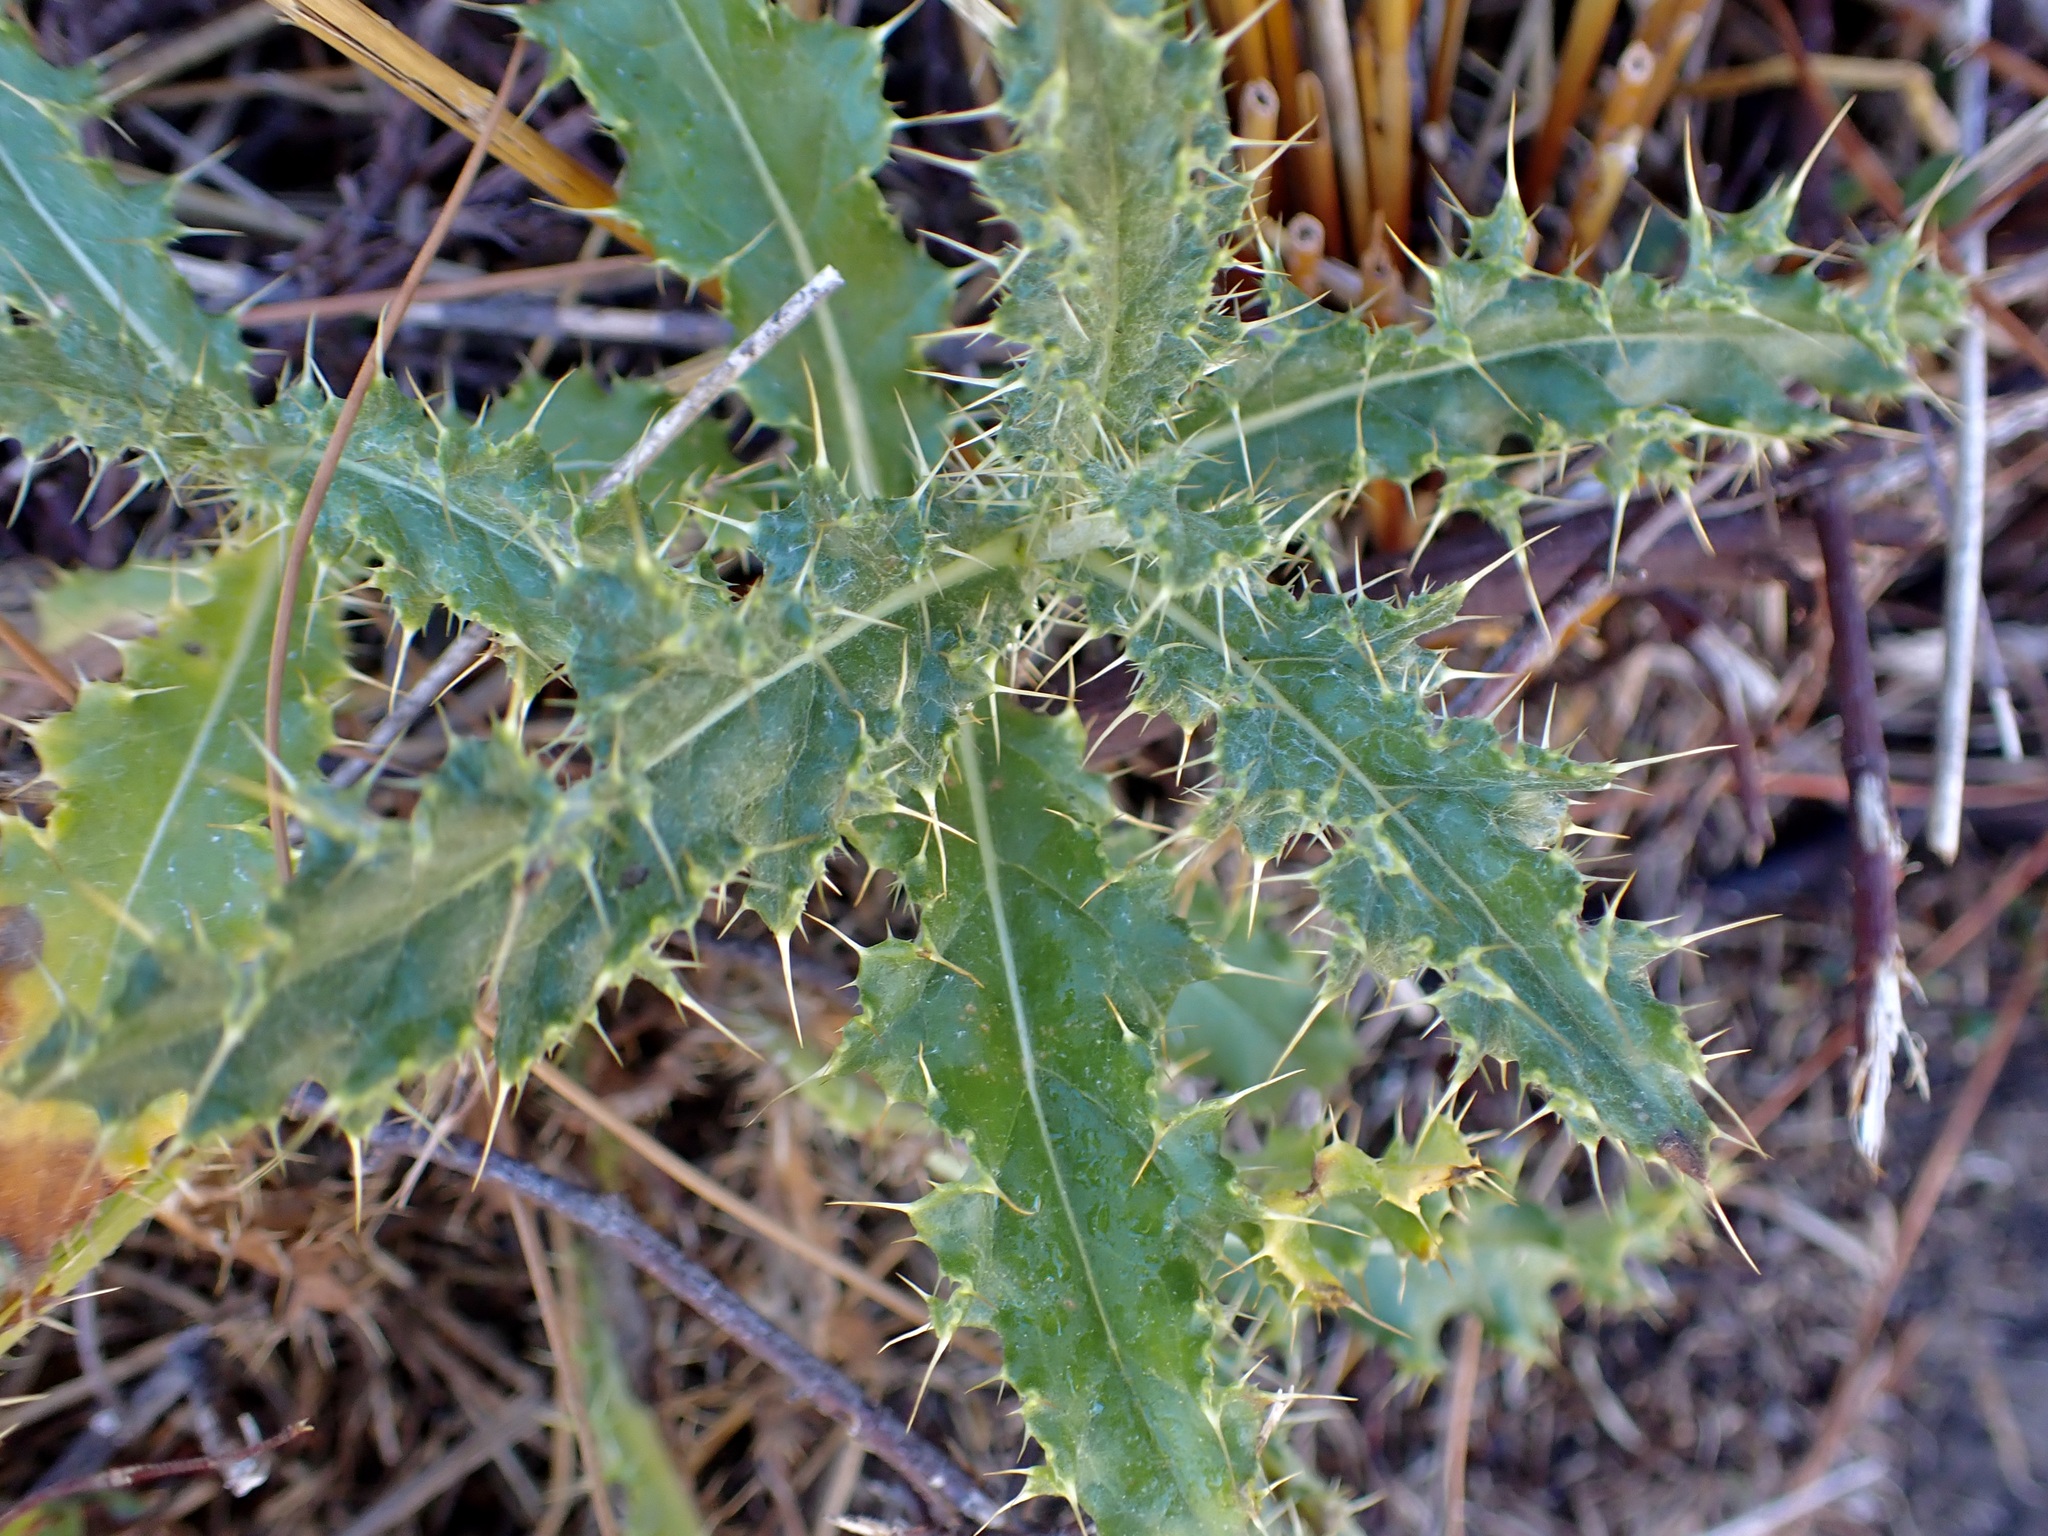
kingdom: Plantae
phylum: Tracheophyta
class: Magnoliopsida
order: Asterales
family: Asteraceae
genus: Cirsium
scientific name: Cirsium arvense
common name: Creeping thistle
